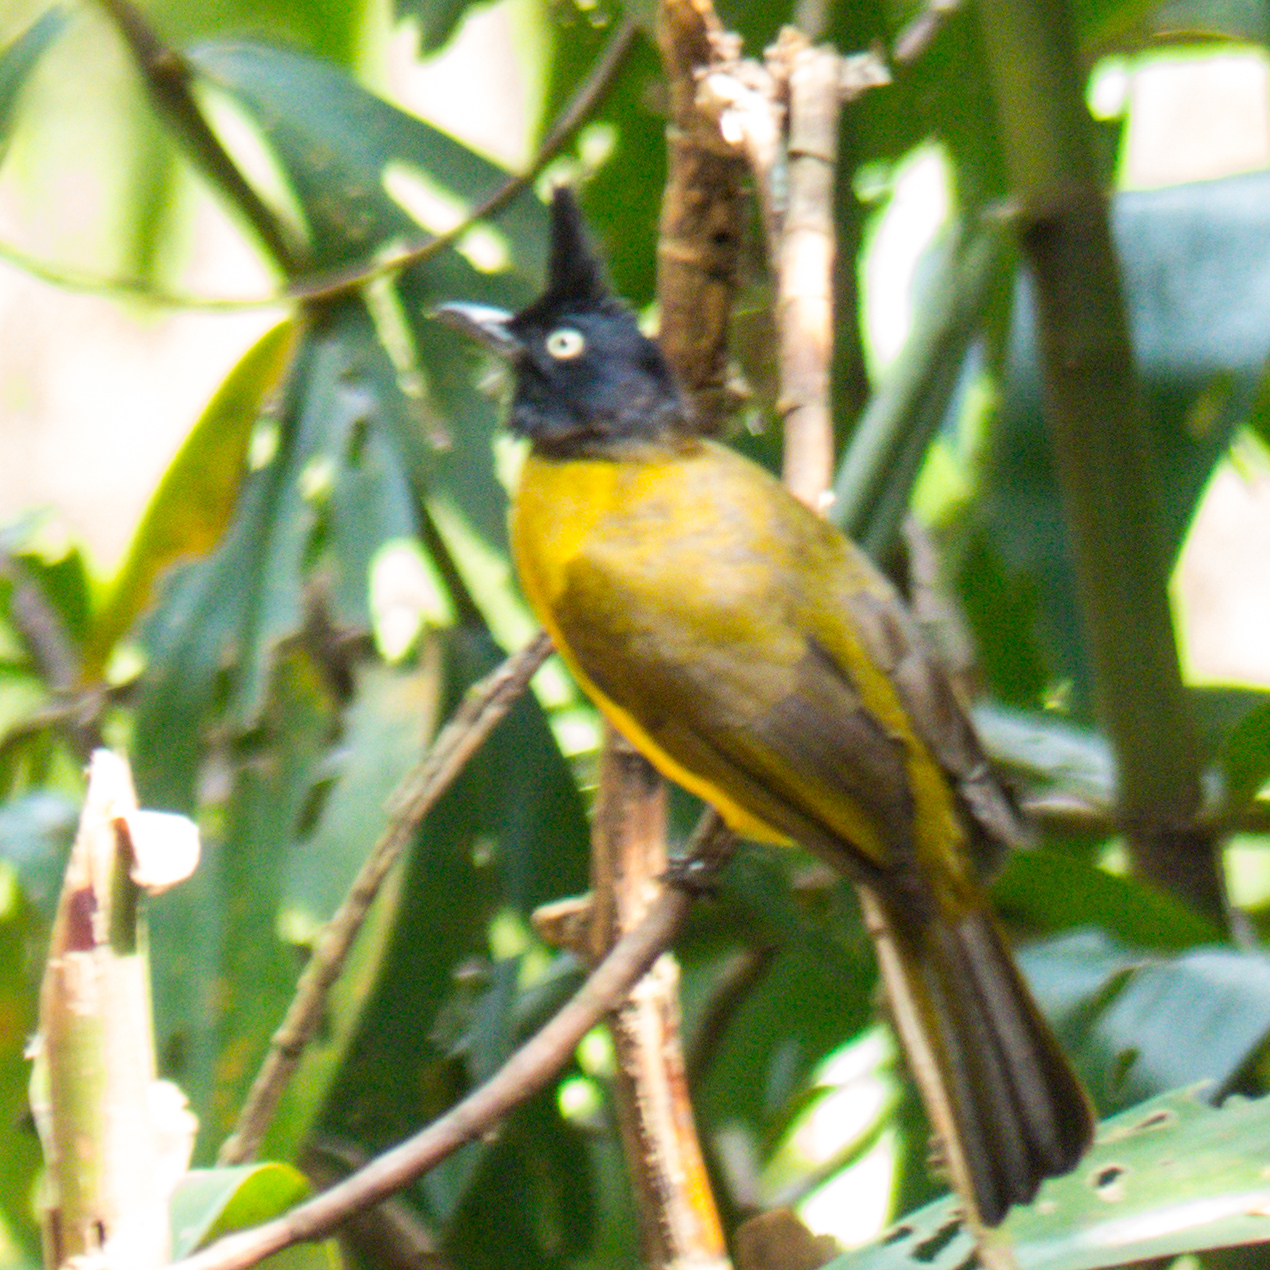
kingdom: Animalia
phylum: Chordata
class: Aves
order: Passeriformes
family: Pycnonotidae
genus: Pycnonotus
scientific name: Pycnonotus flaviventris
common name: Black-crested bulbul
